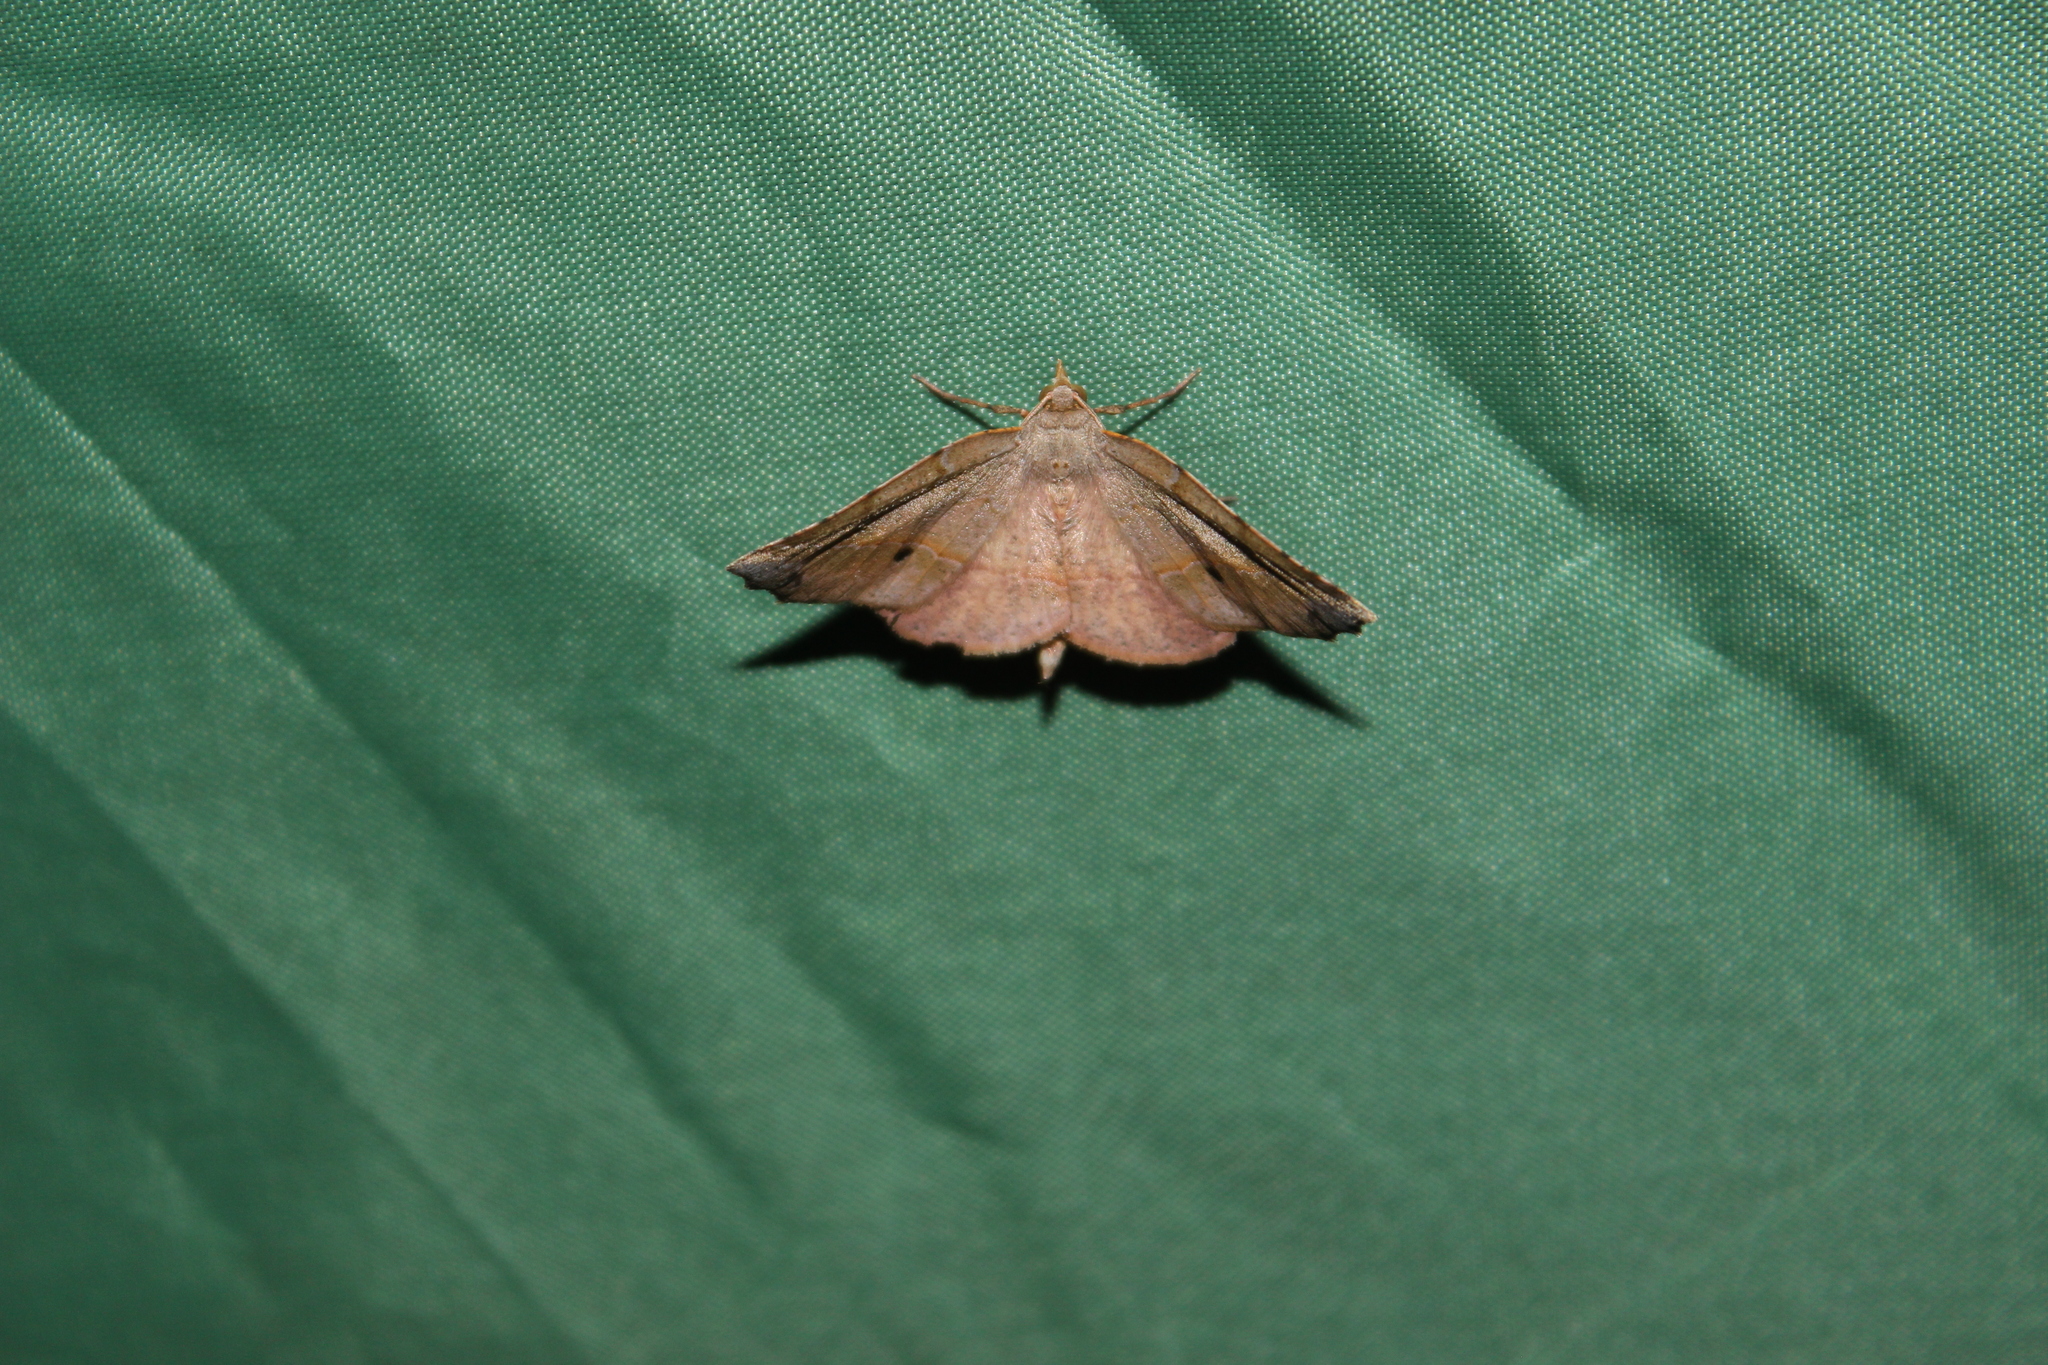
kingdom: Animalia
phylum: Arthropoda
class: Insecta
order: Lepidoptera
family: Geometridae
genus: Ischalis
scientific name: Ischalis gallaria
